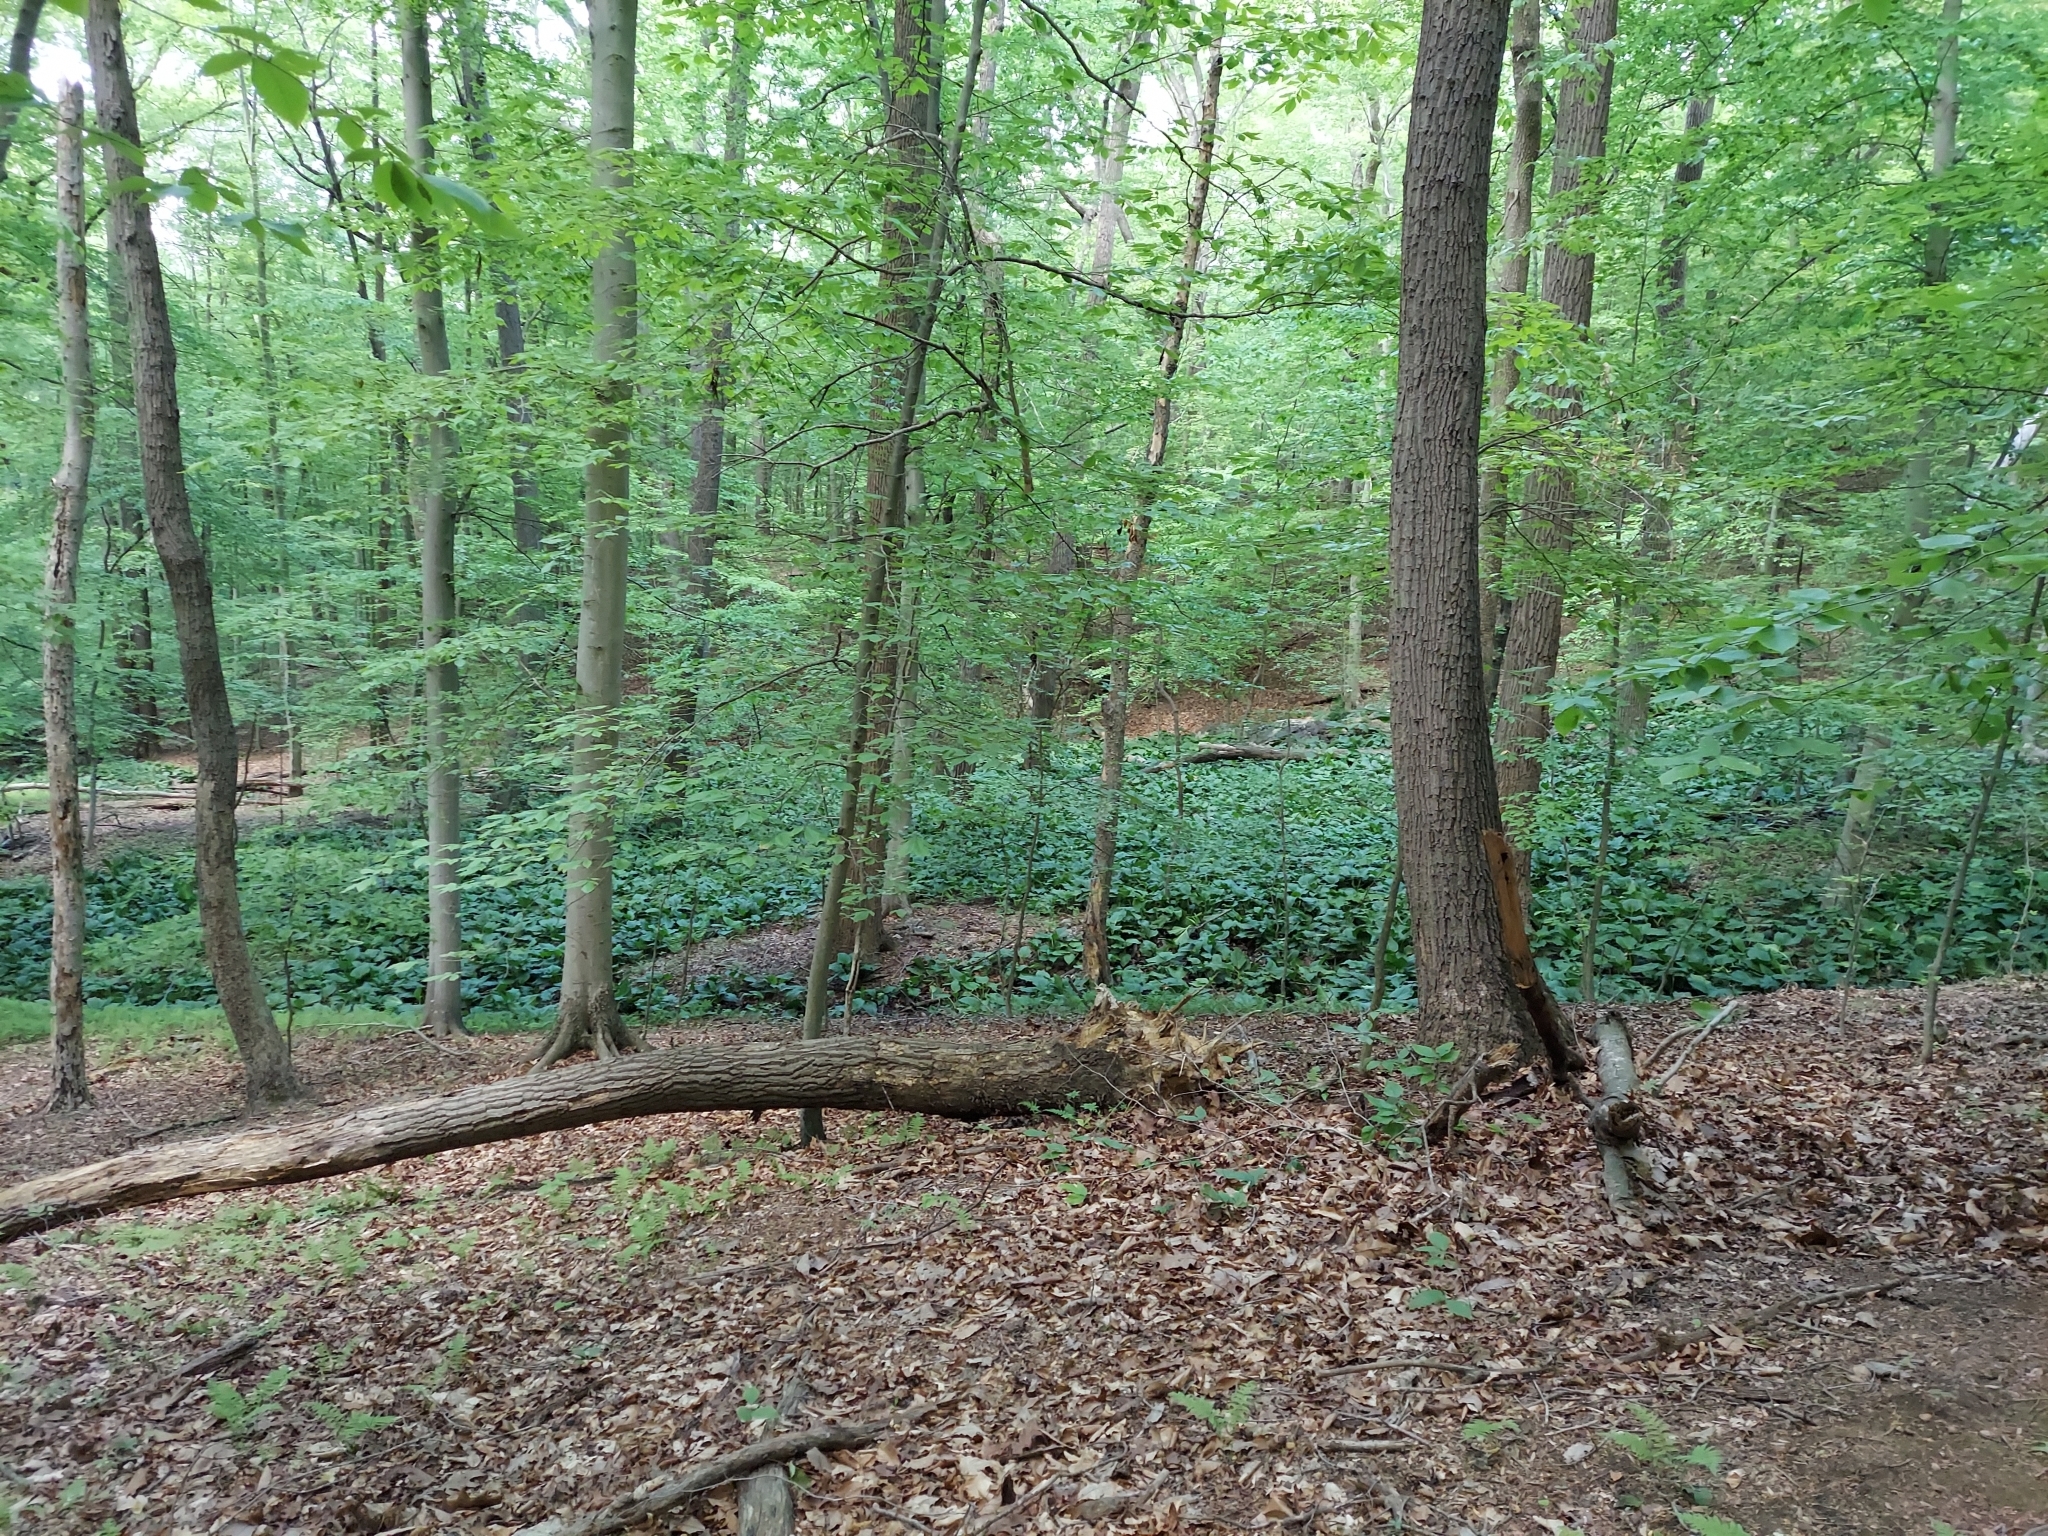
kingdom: Plantae
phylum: Tracheophyta
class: Liliopsida
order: Alismatales
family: Araceae
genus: Symplocarpus
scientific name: Symplocarpus foetidus
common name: Eastern skunk cabbage
